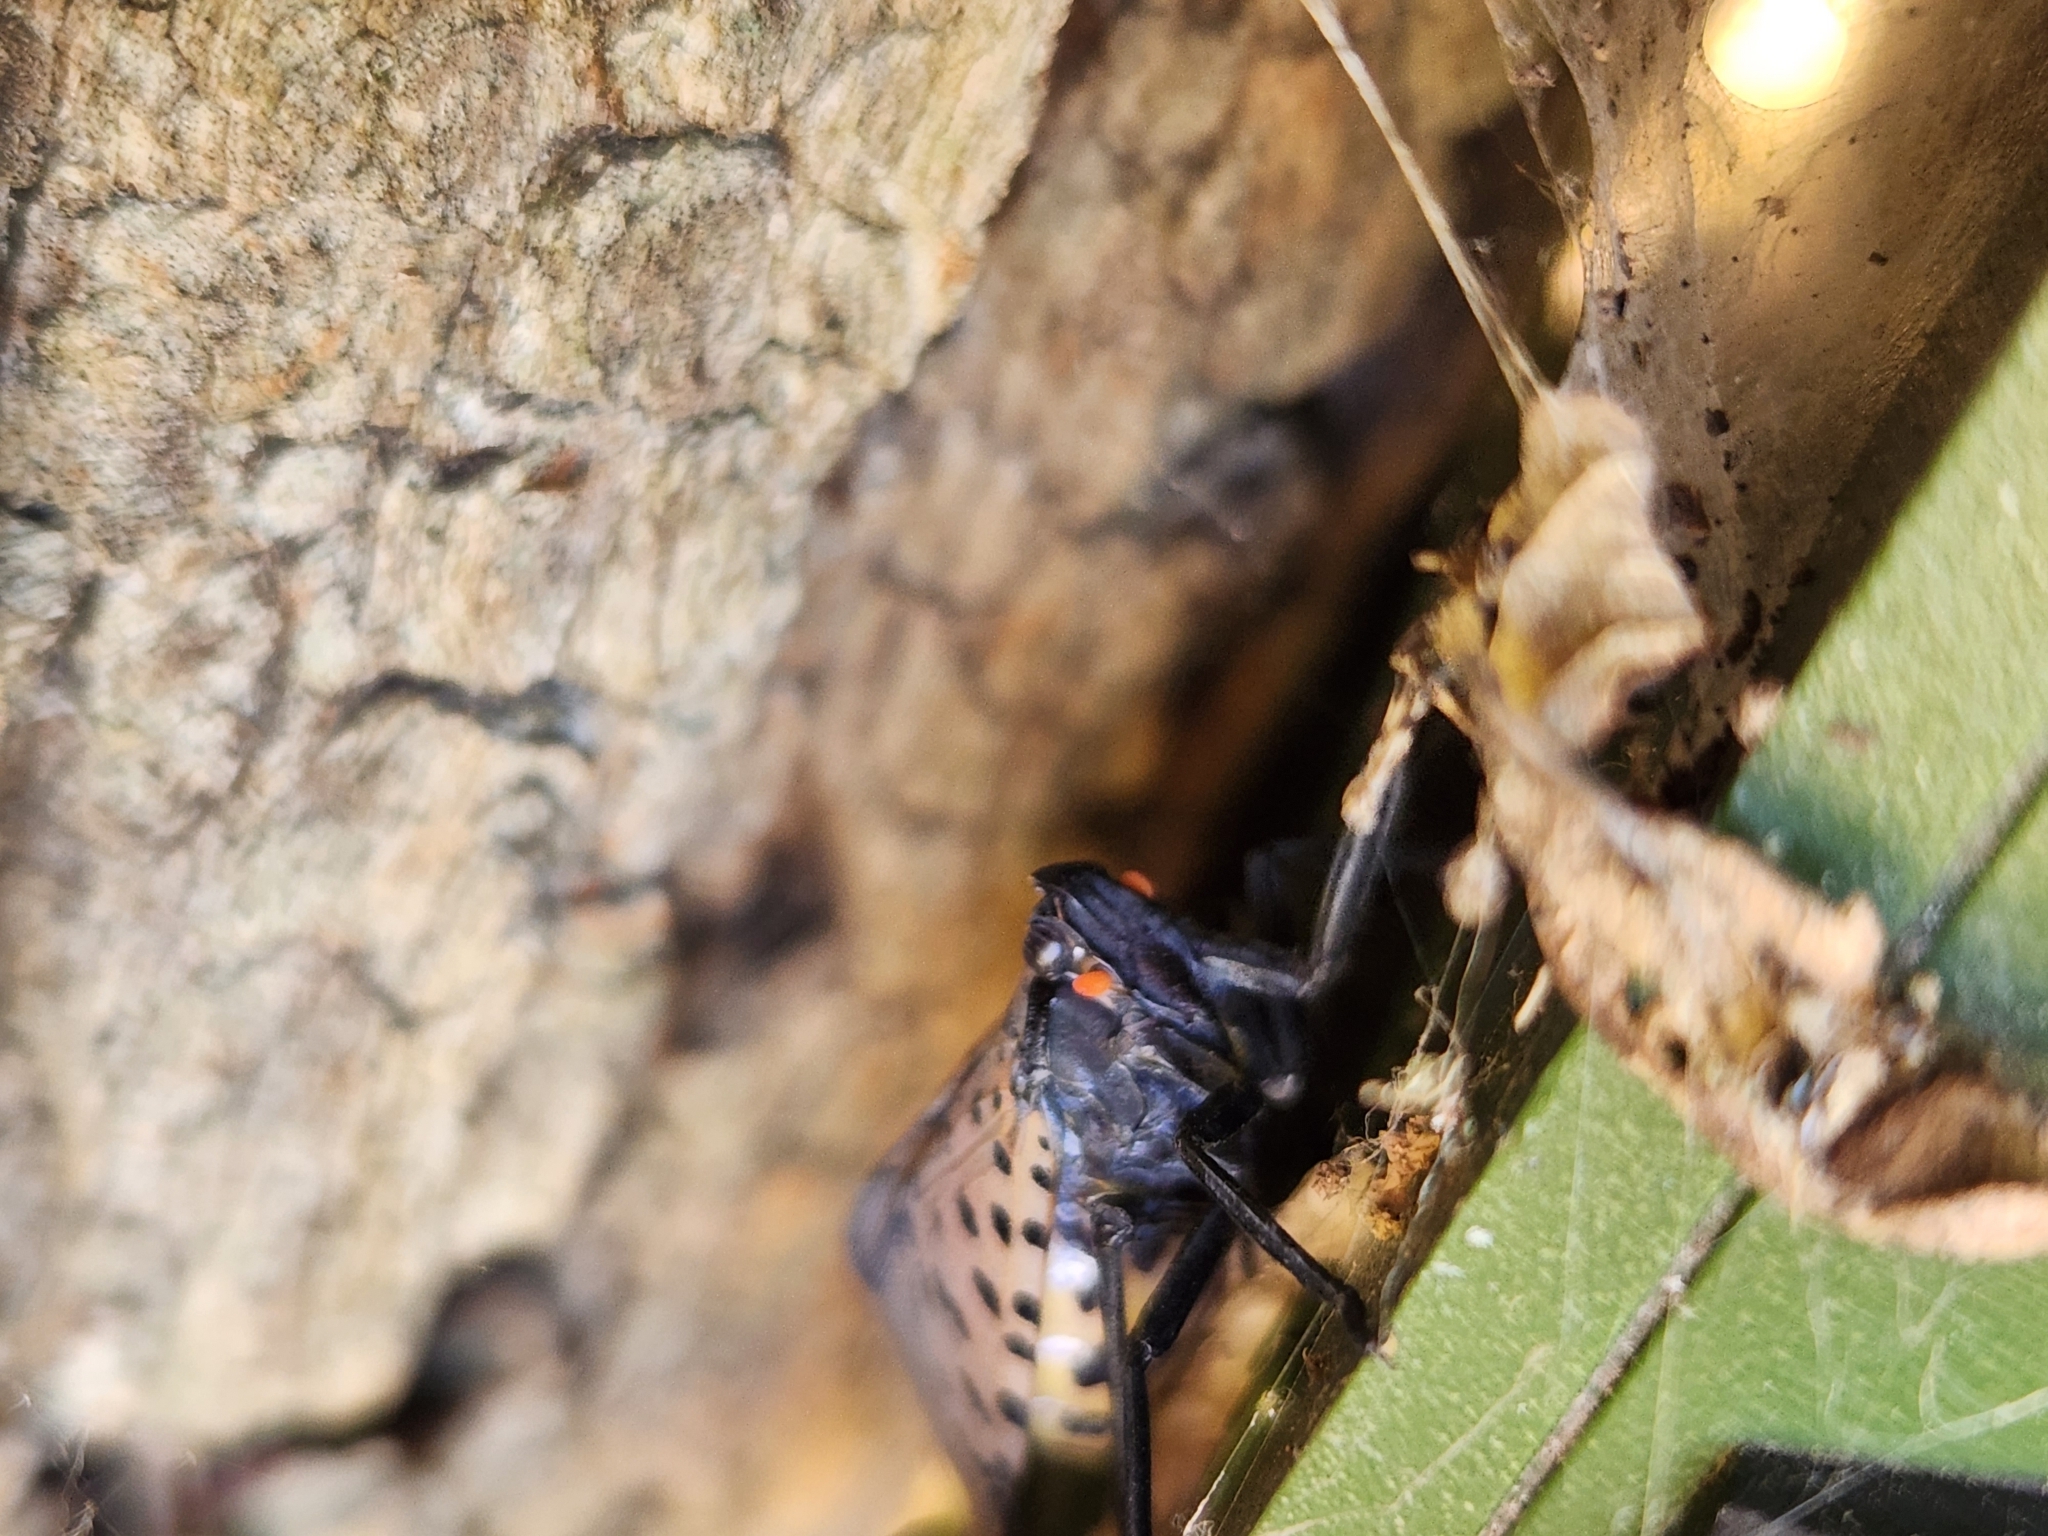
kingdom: Animalia
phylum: Arthropoda
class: Insecta
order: Hemiptera
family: Fulgoridae
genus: Lycorma
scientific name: Lycorma delicatula
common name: Spotted lanternfly
